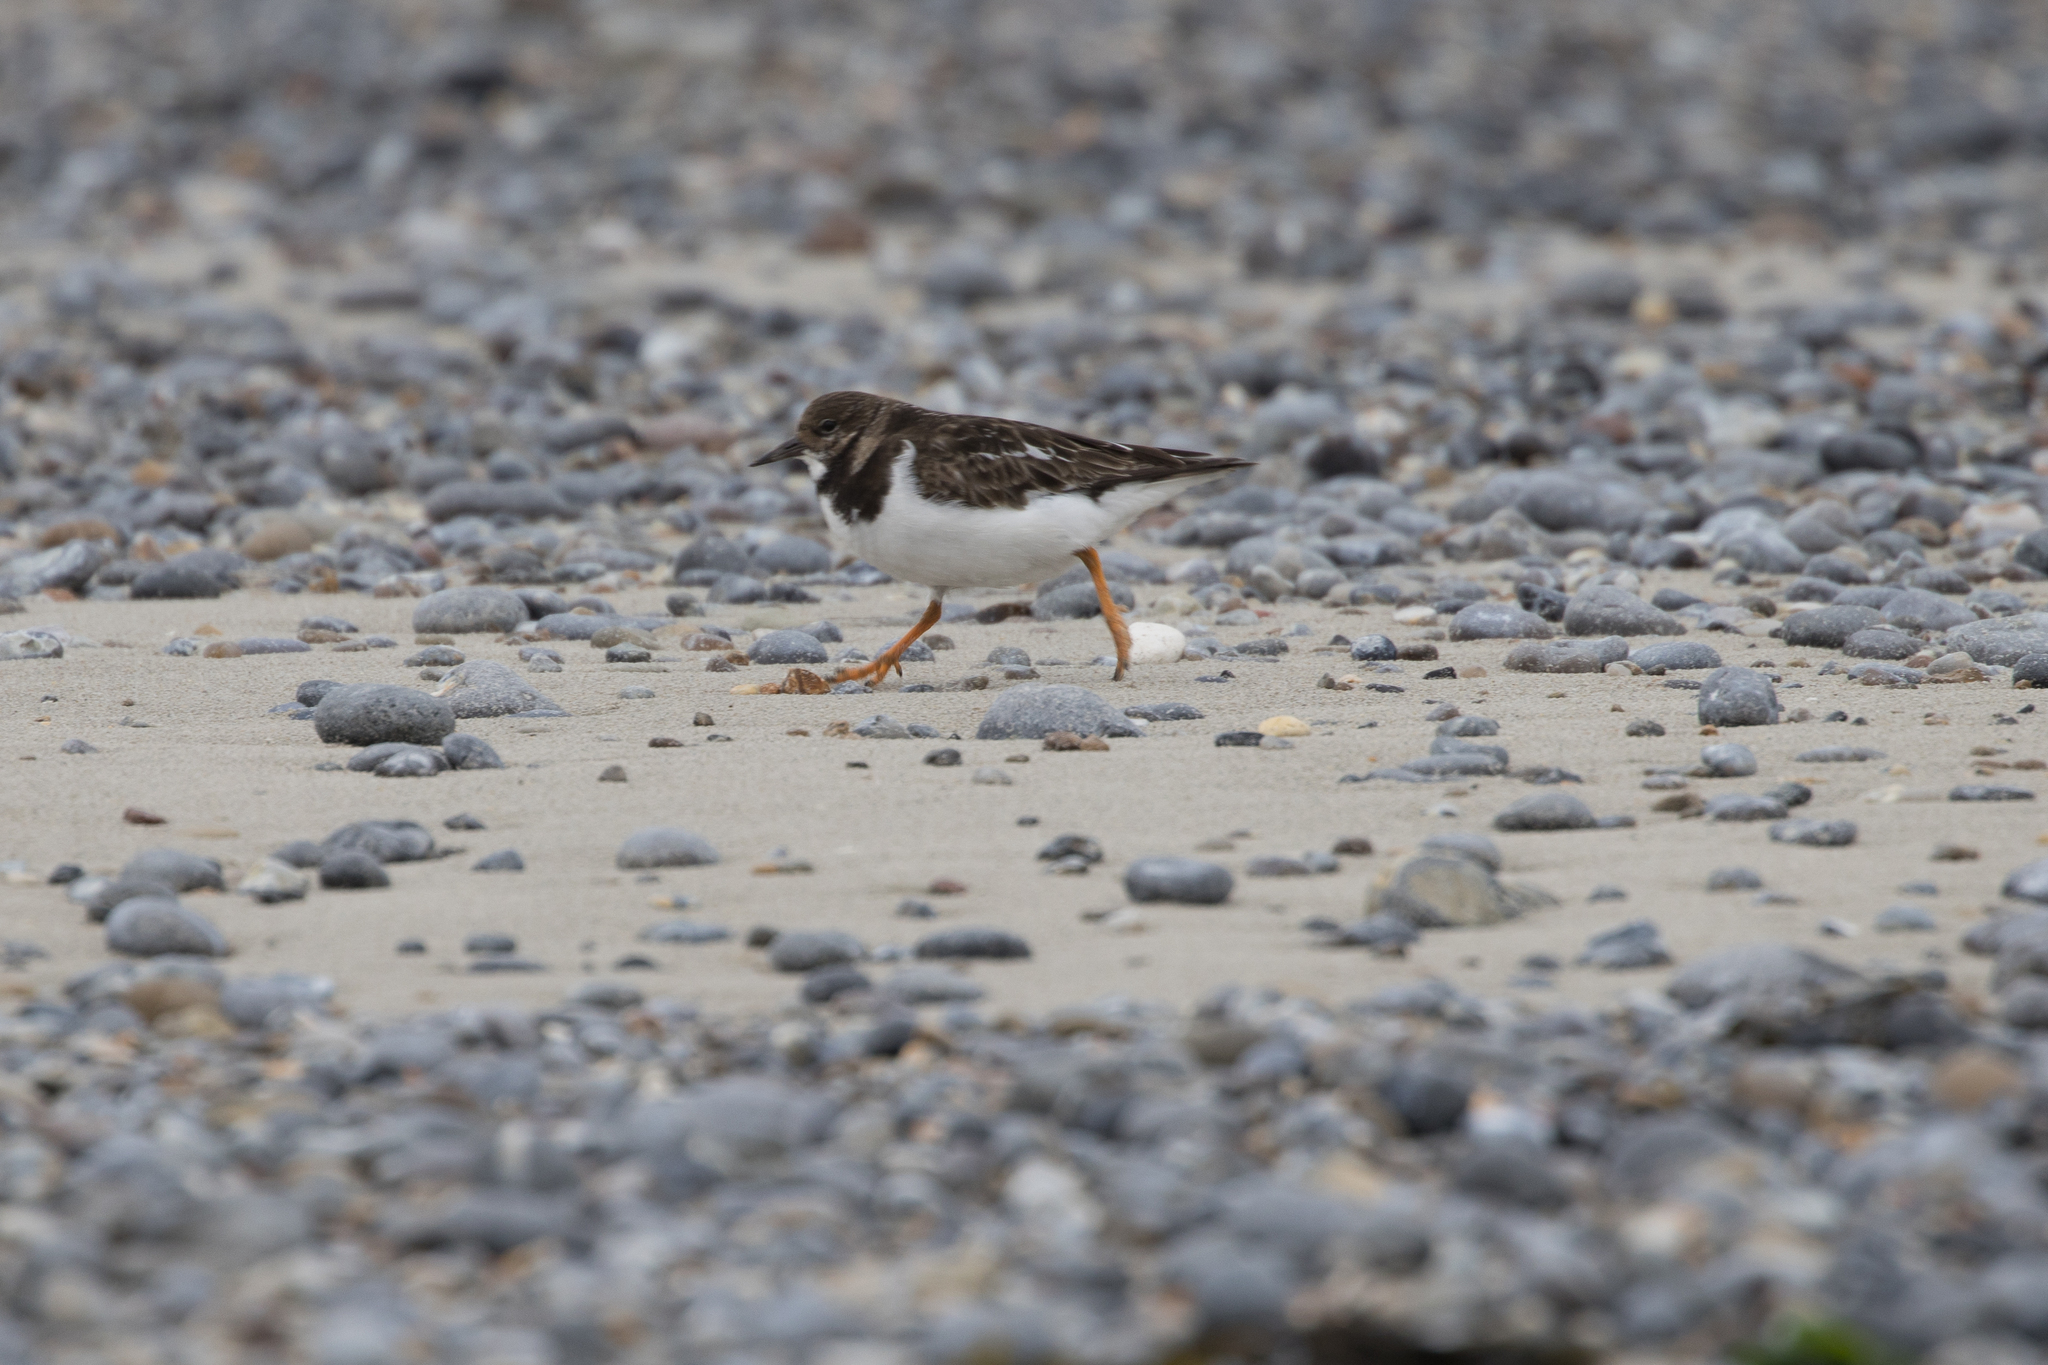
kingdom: Animalia
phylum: Chordata
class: Aves
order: Charadriiformes
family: Scolopacidae
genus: Arenaria
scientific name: Arenaria interpres
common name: Ruddy turnstone
